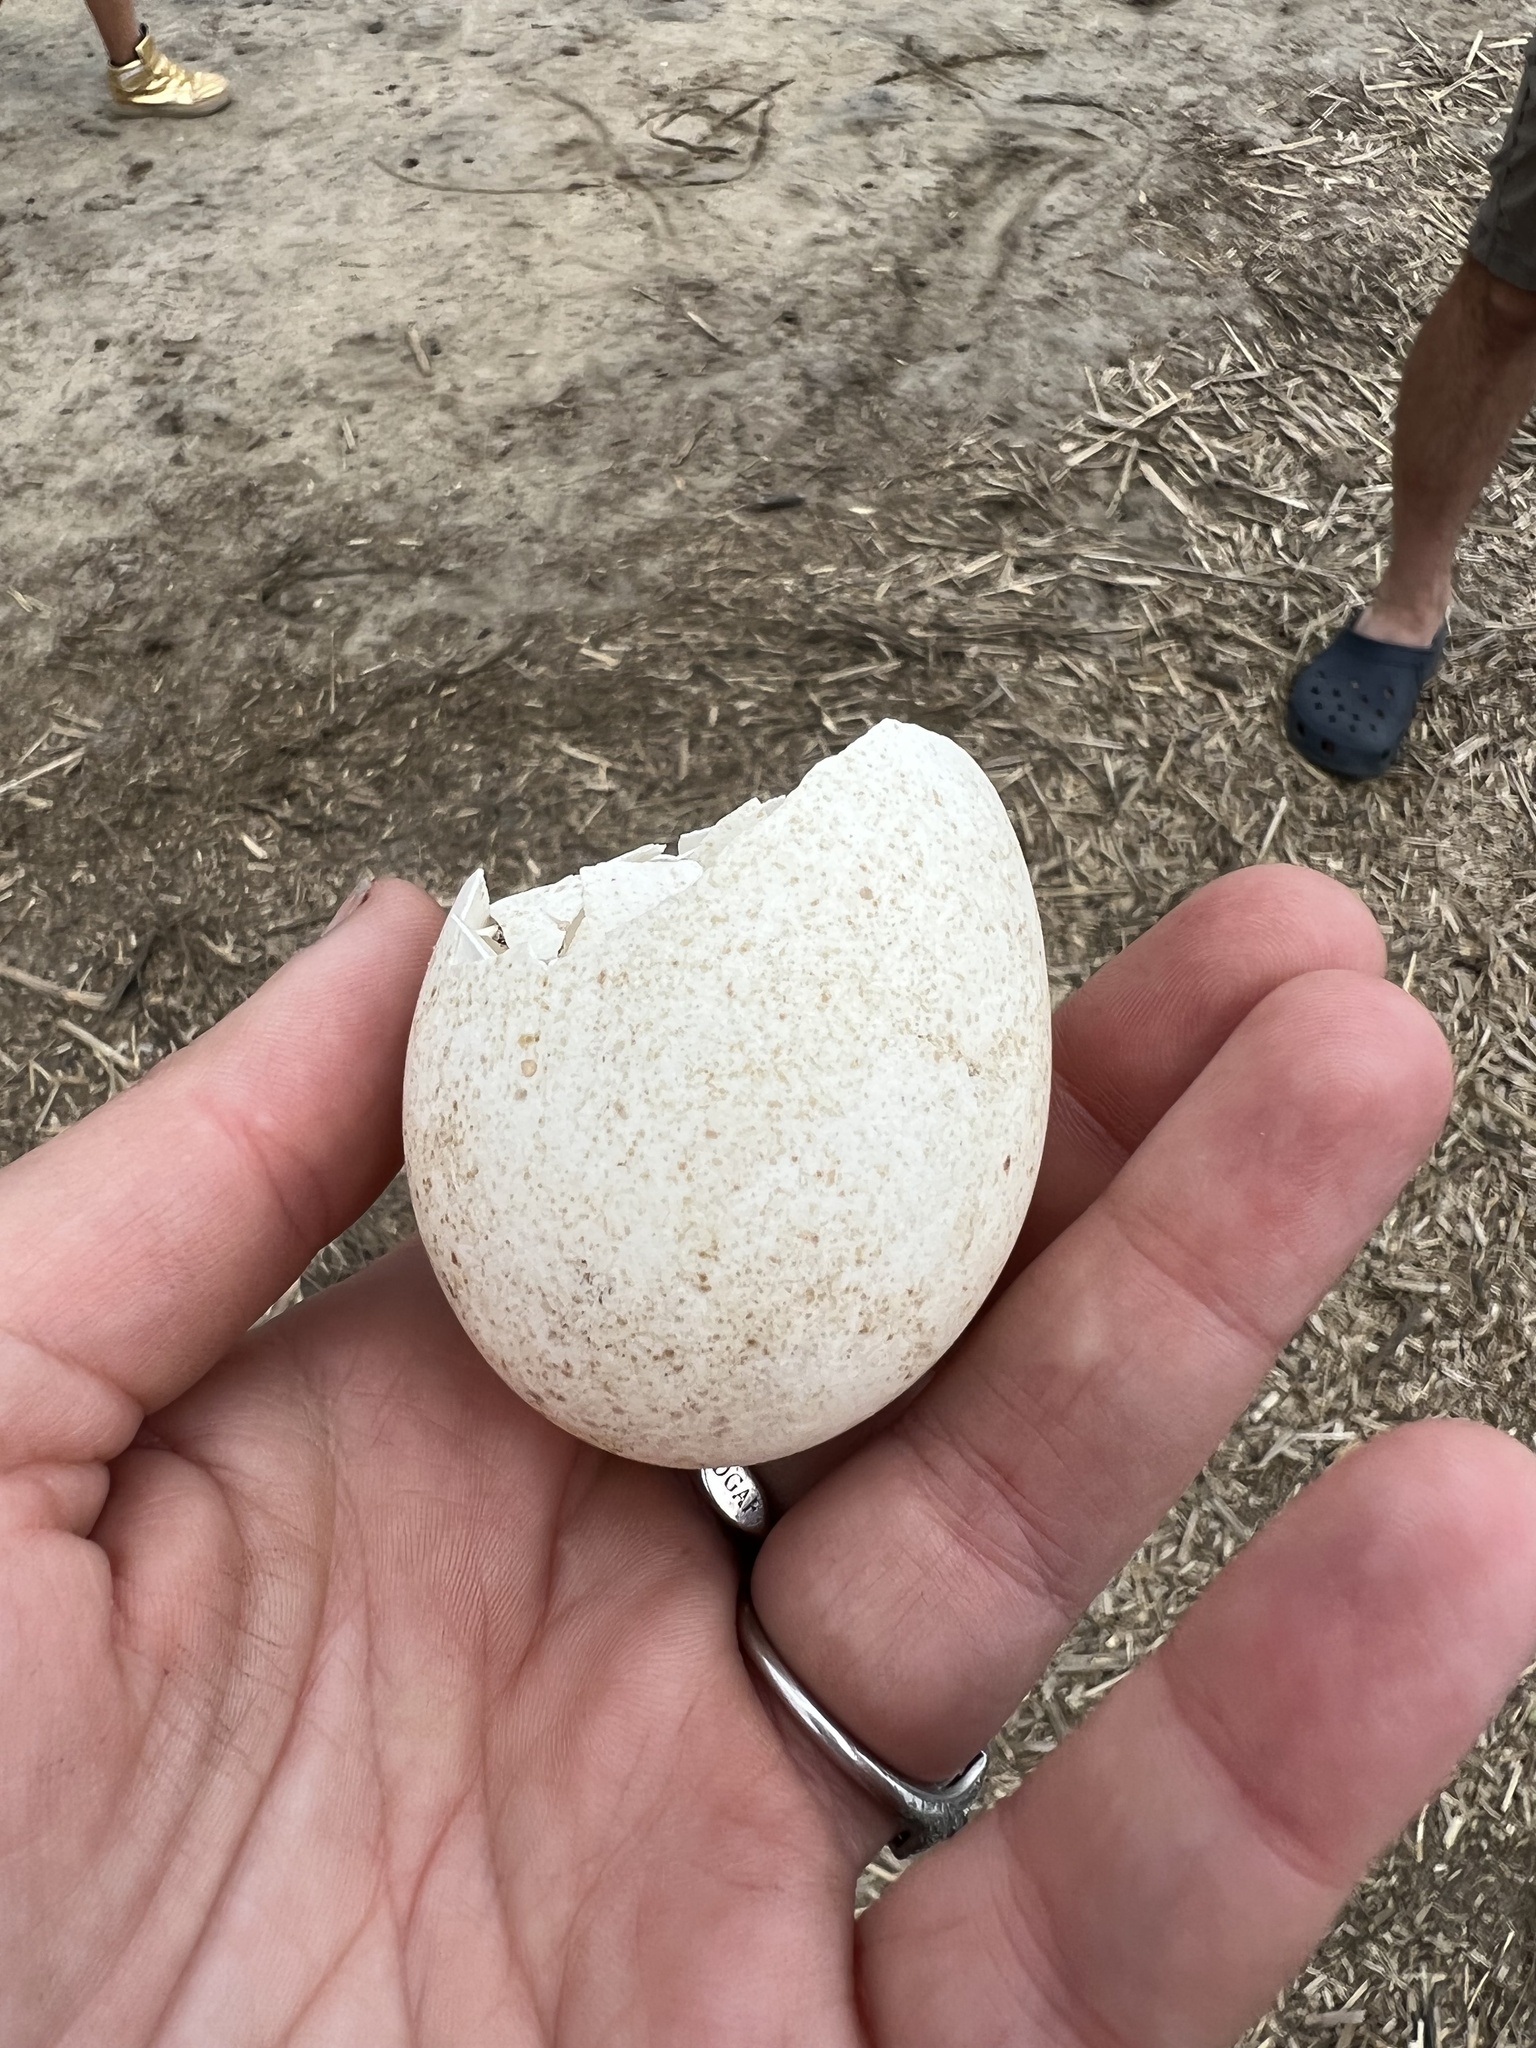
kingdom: Animalia
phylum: Chordata
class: Aves
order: Galliformes
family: Phasianidae
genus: Meleagris
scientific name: Meleagris gallopavo
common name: Wild turkey
